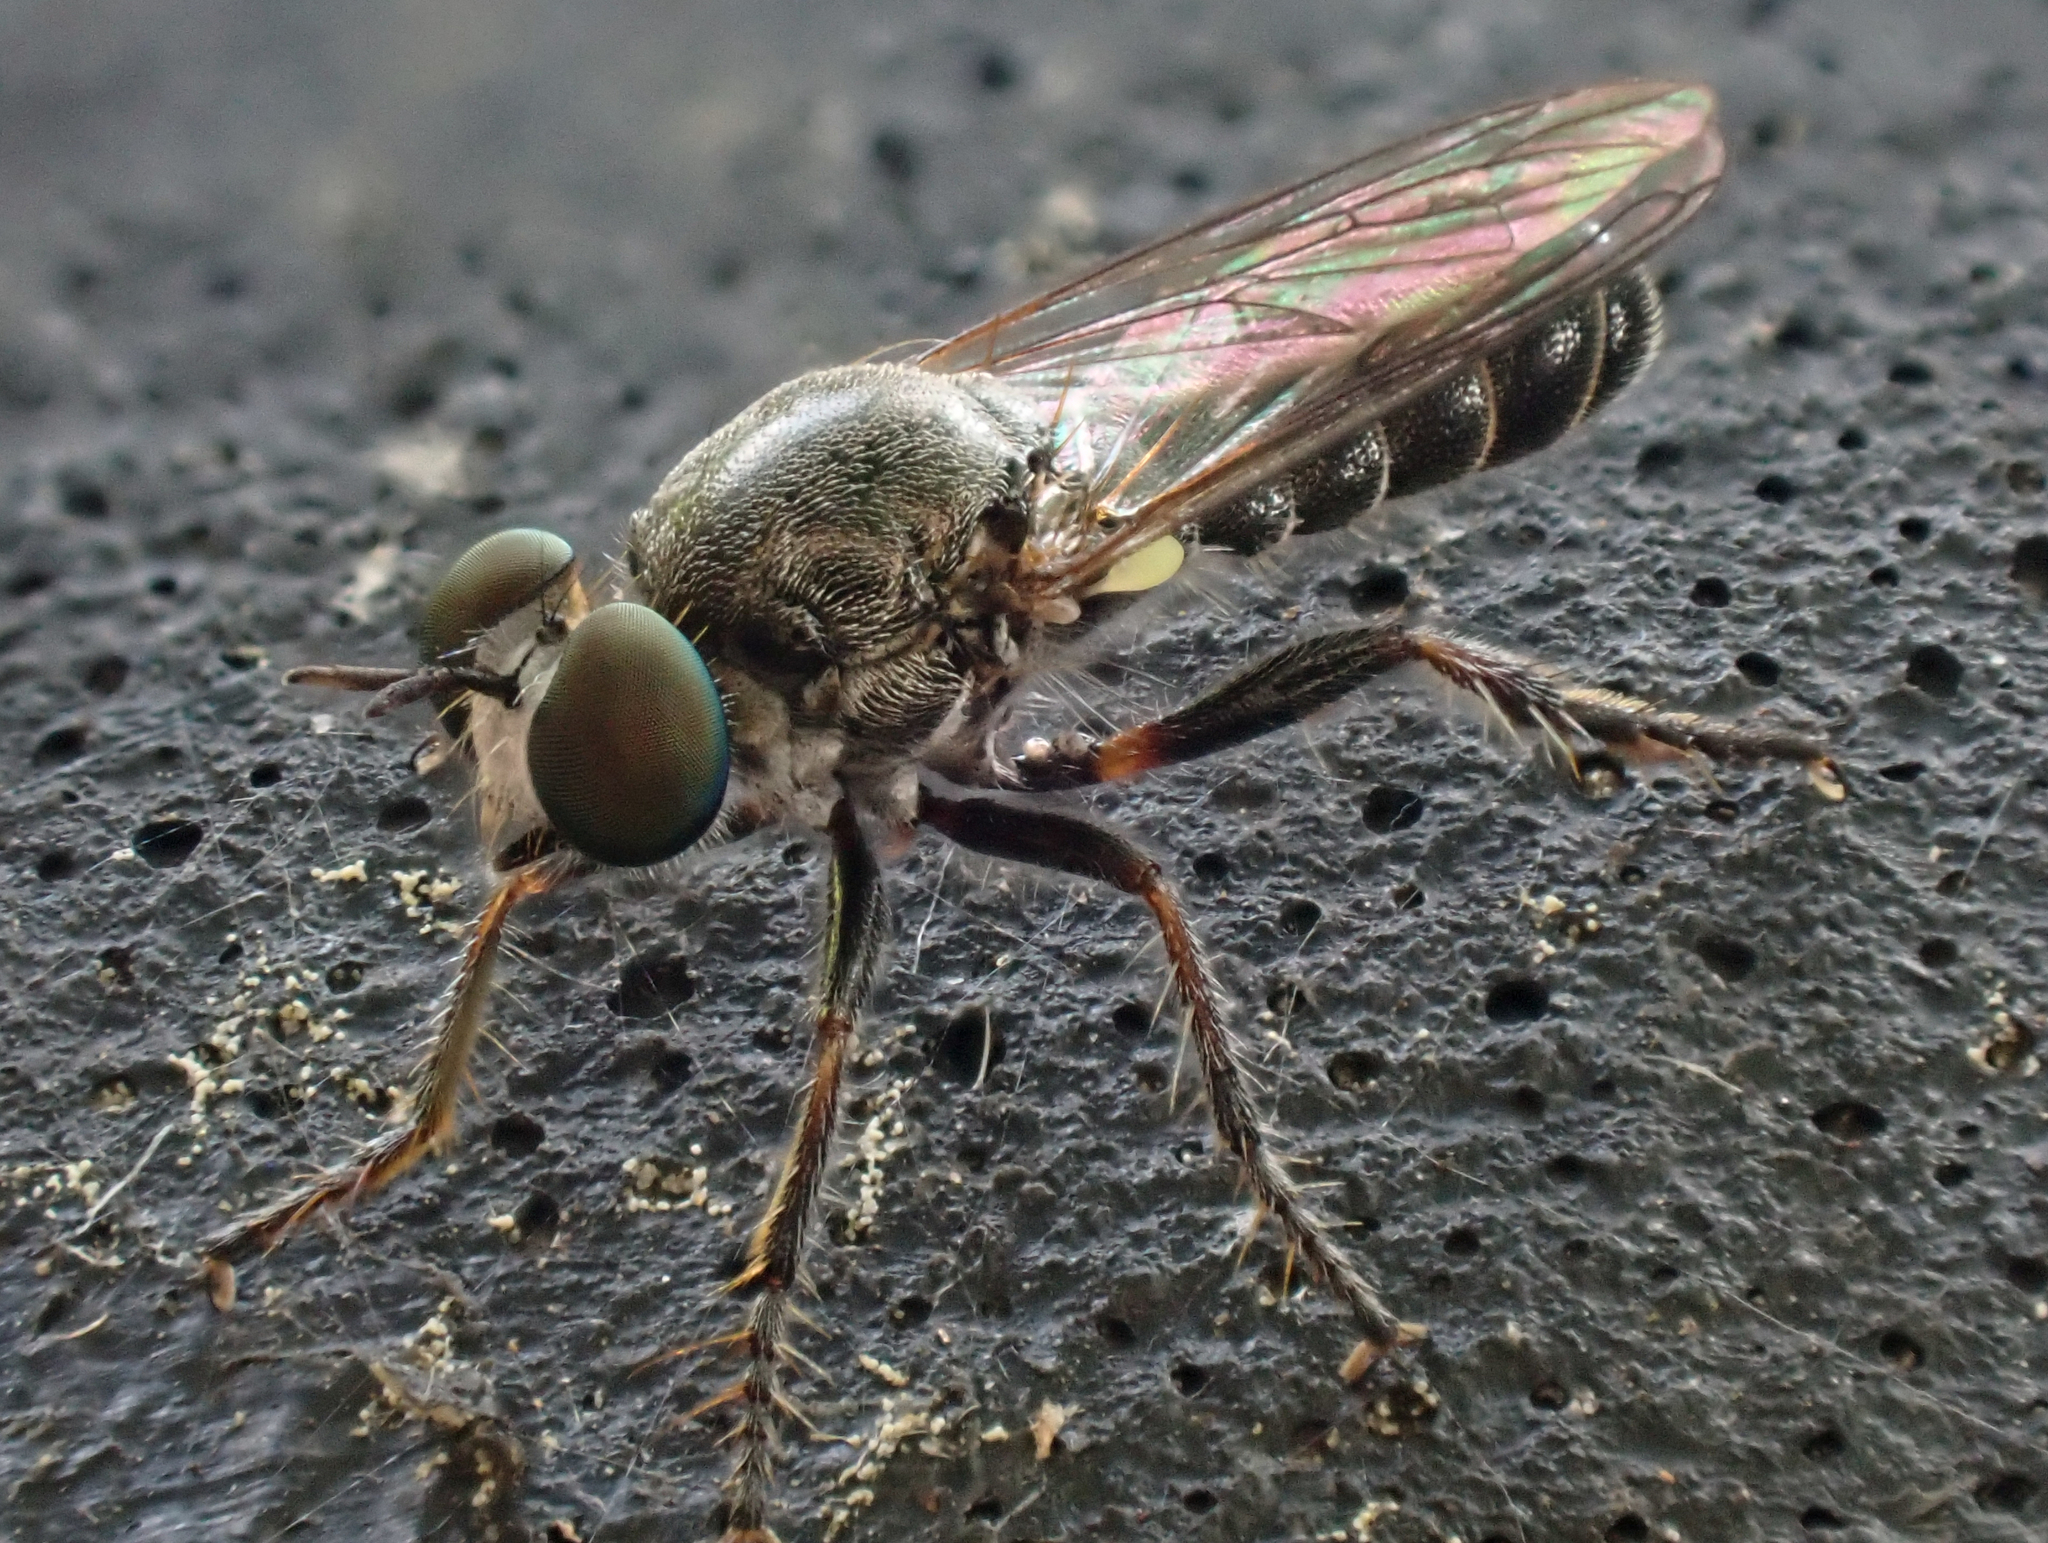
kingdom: Animalia
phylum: Arthropoda
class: Insecta
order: Diptera
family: Asilidae
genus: Atomosia
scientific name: Atomosia puella
